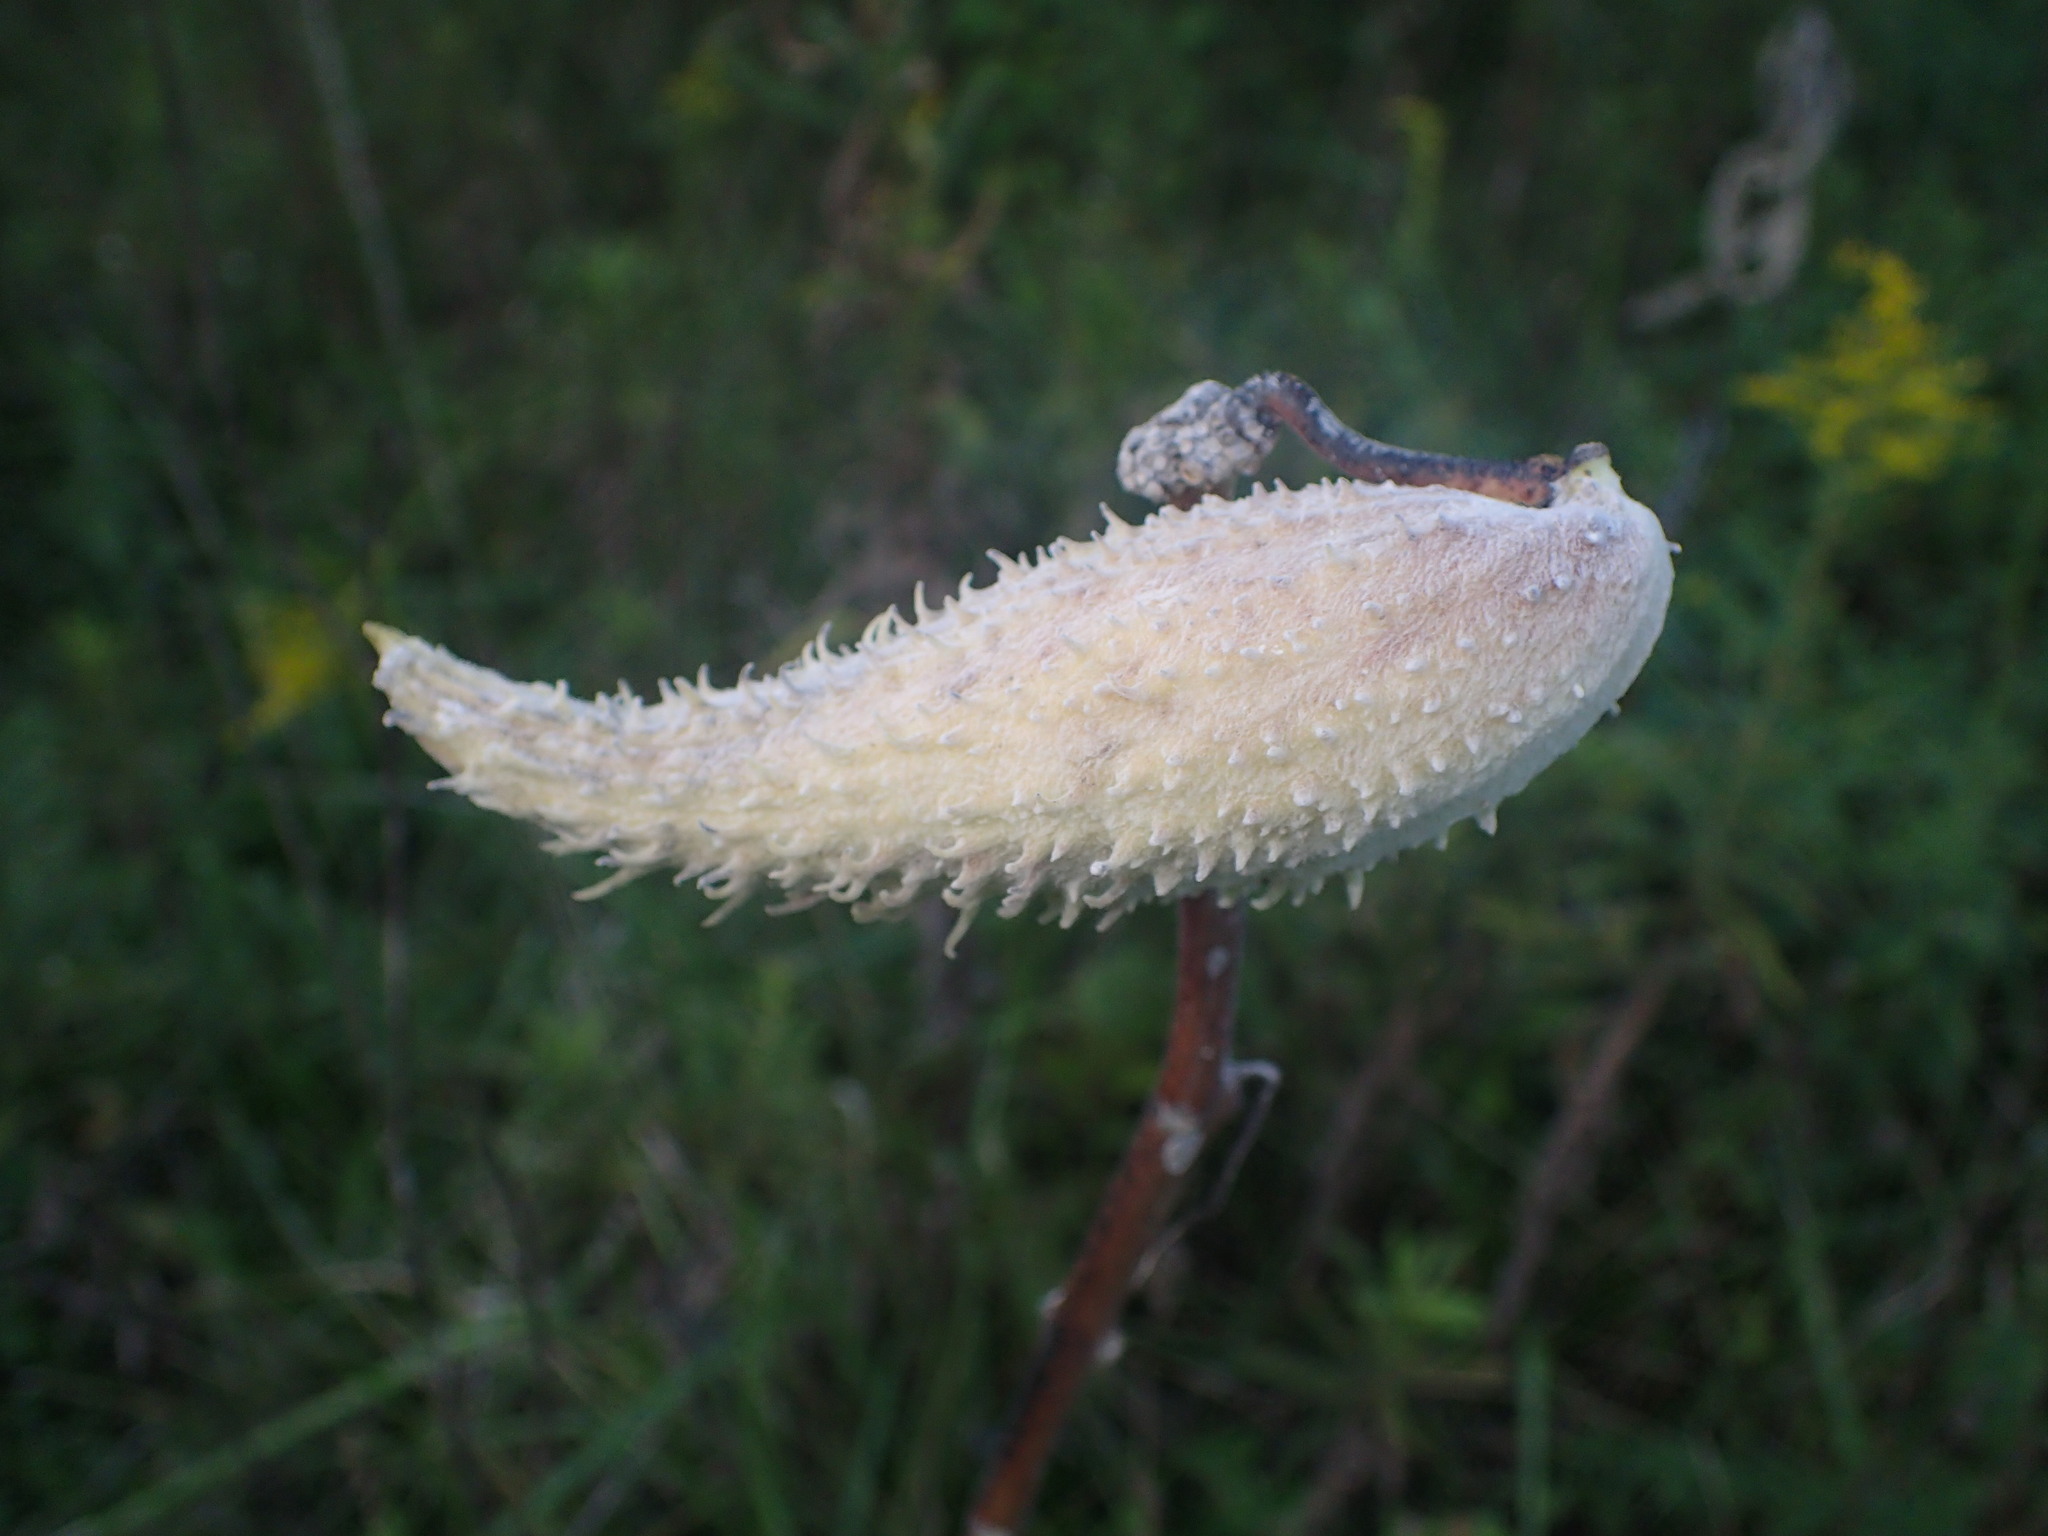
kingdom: Plantae
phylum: Tracheophyta
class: Magnoliopsida
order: Gentianales
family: Apocynaceae
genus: Asclepias
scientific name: Asclepias syriaca
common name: Common milkweed
